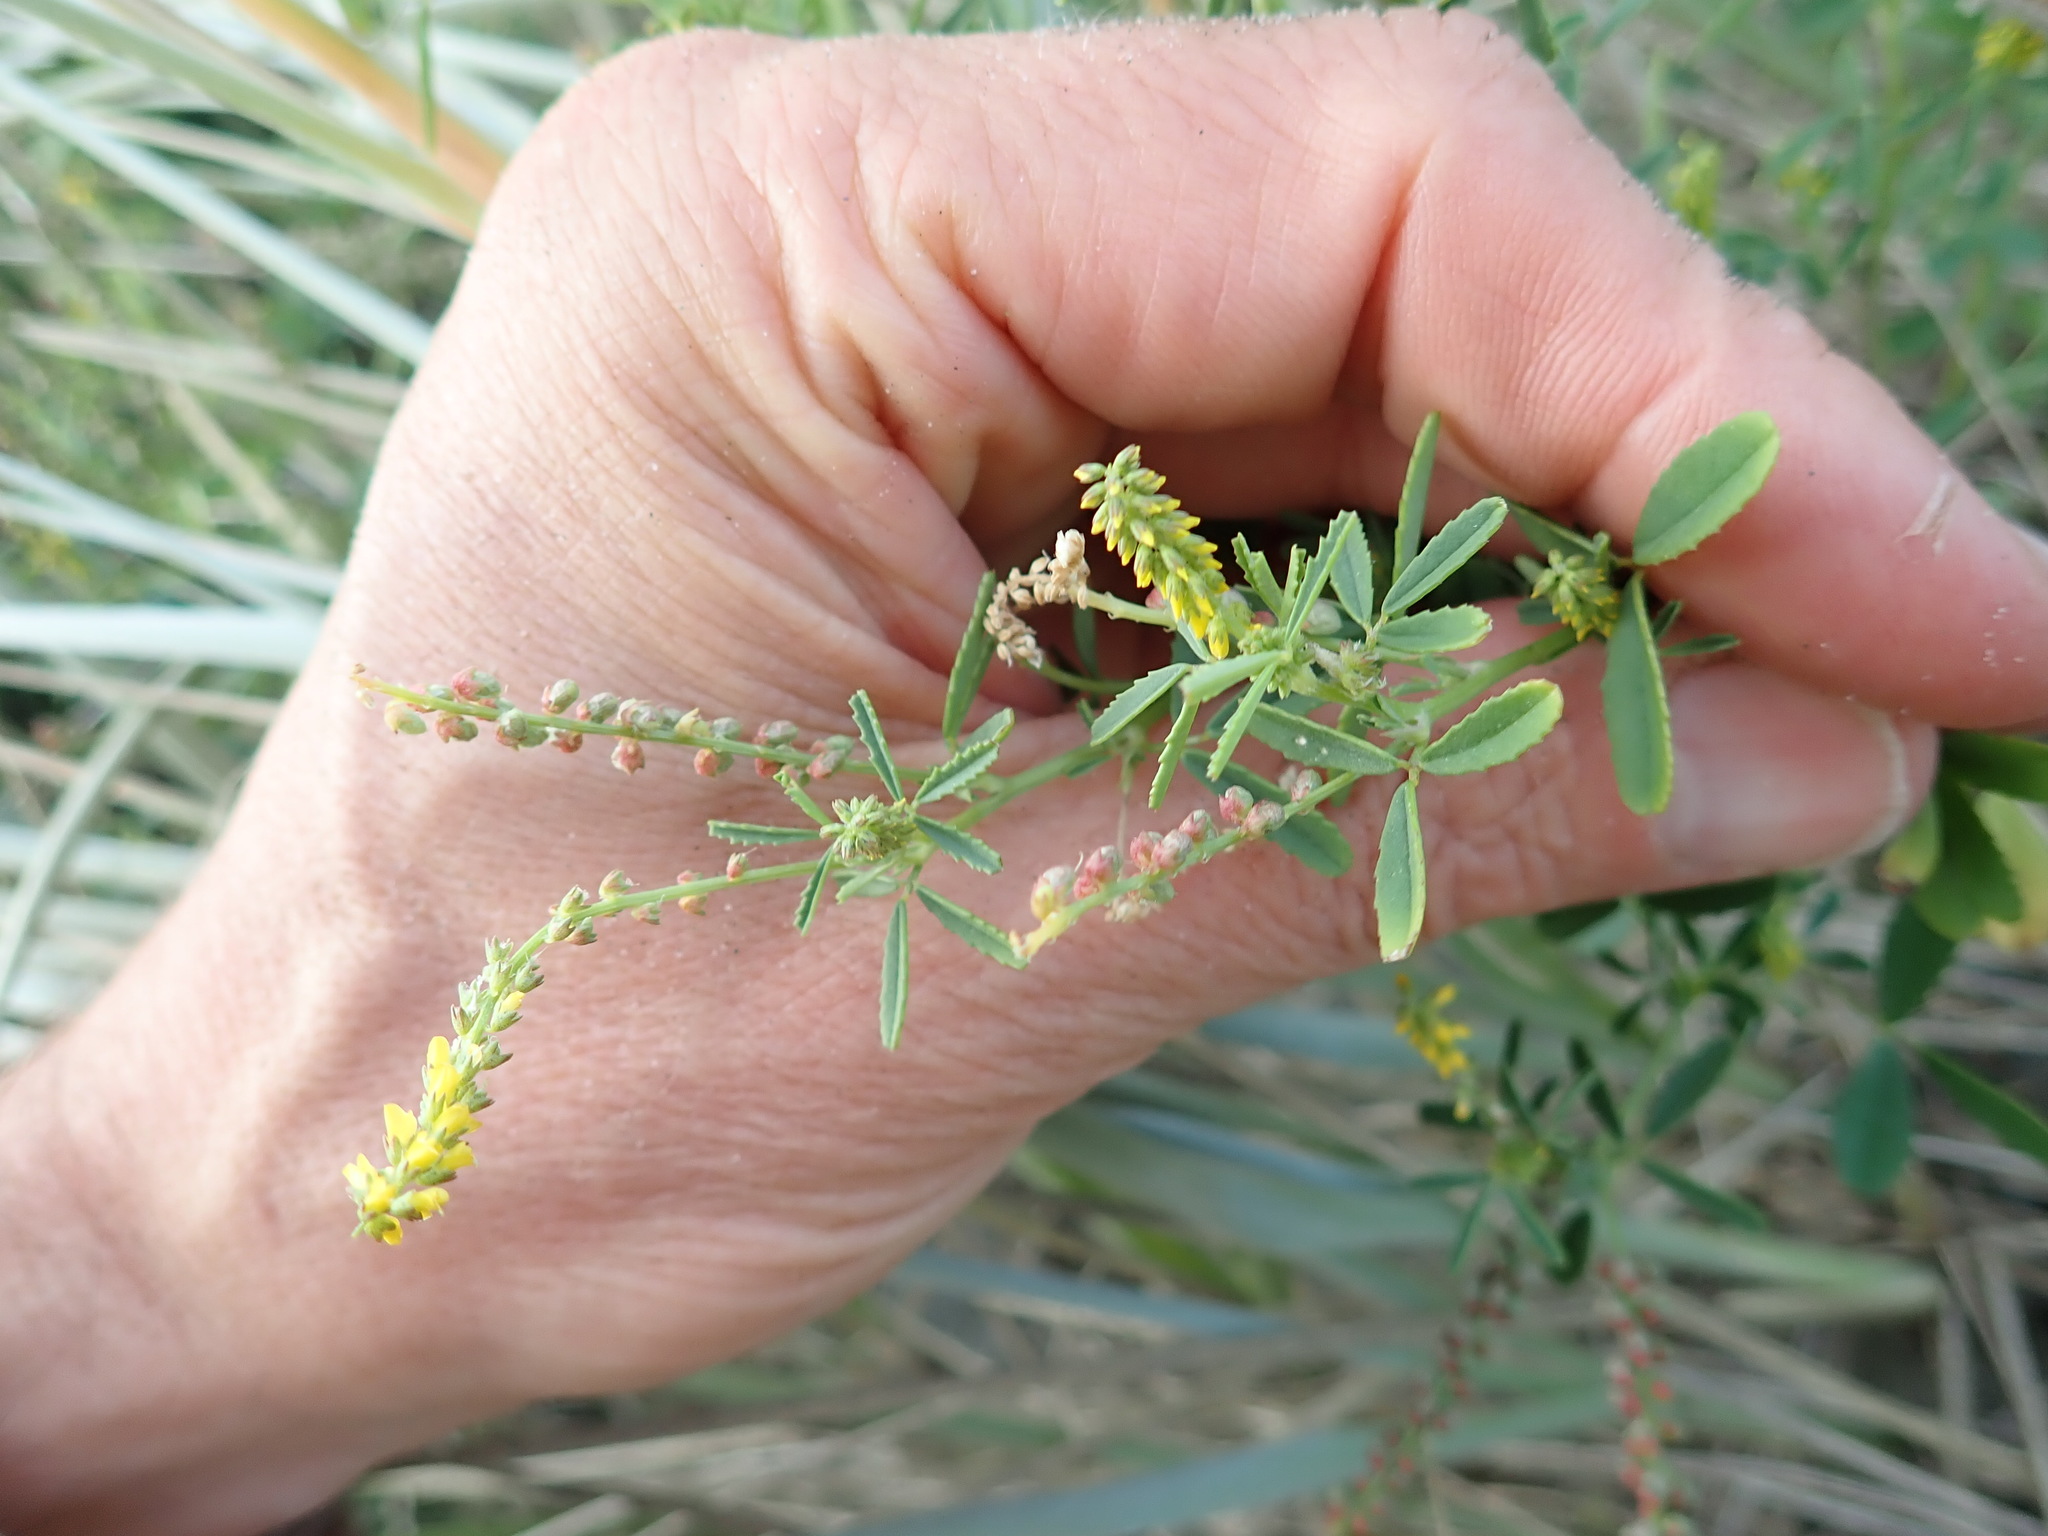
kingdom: Plantae
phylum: Tracheophyta
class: Magnoliopsida
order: Fabales
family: Fabaceae
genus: Melilotus
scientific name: Melilotus indicus
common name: Small melilot
